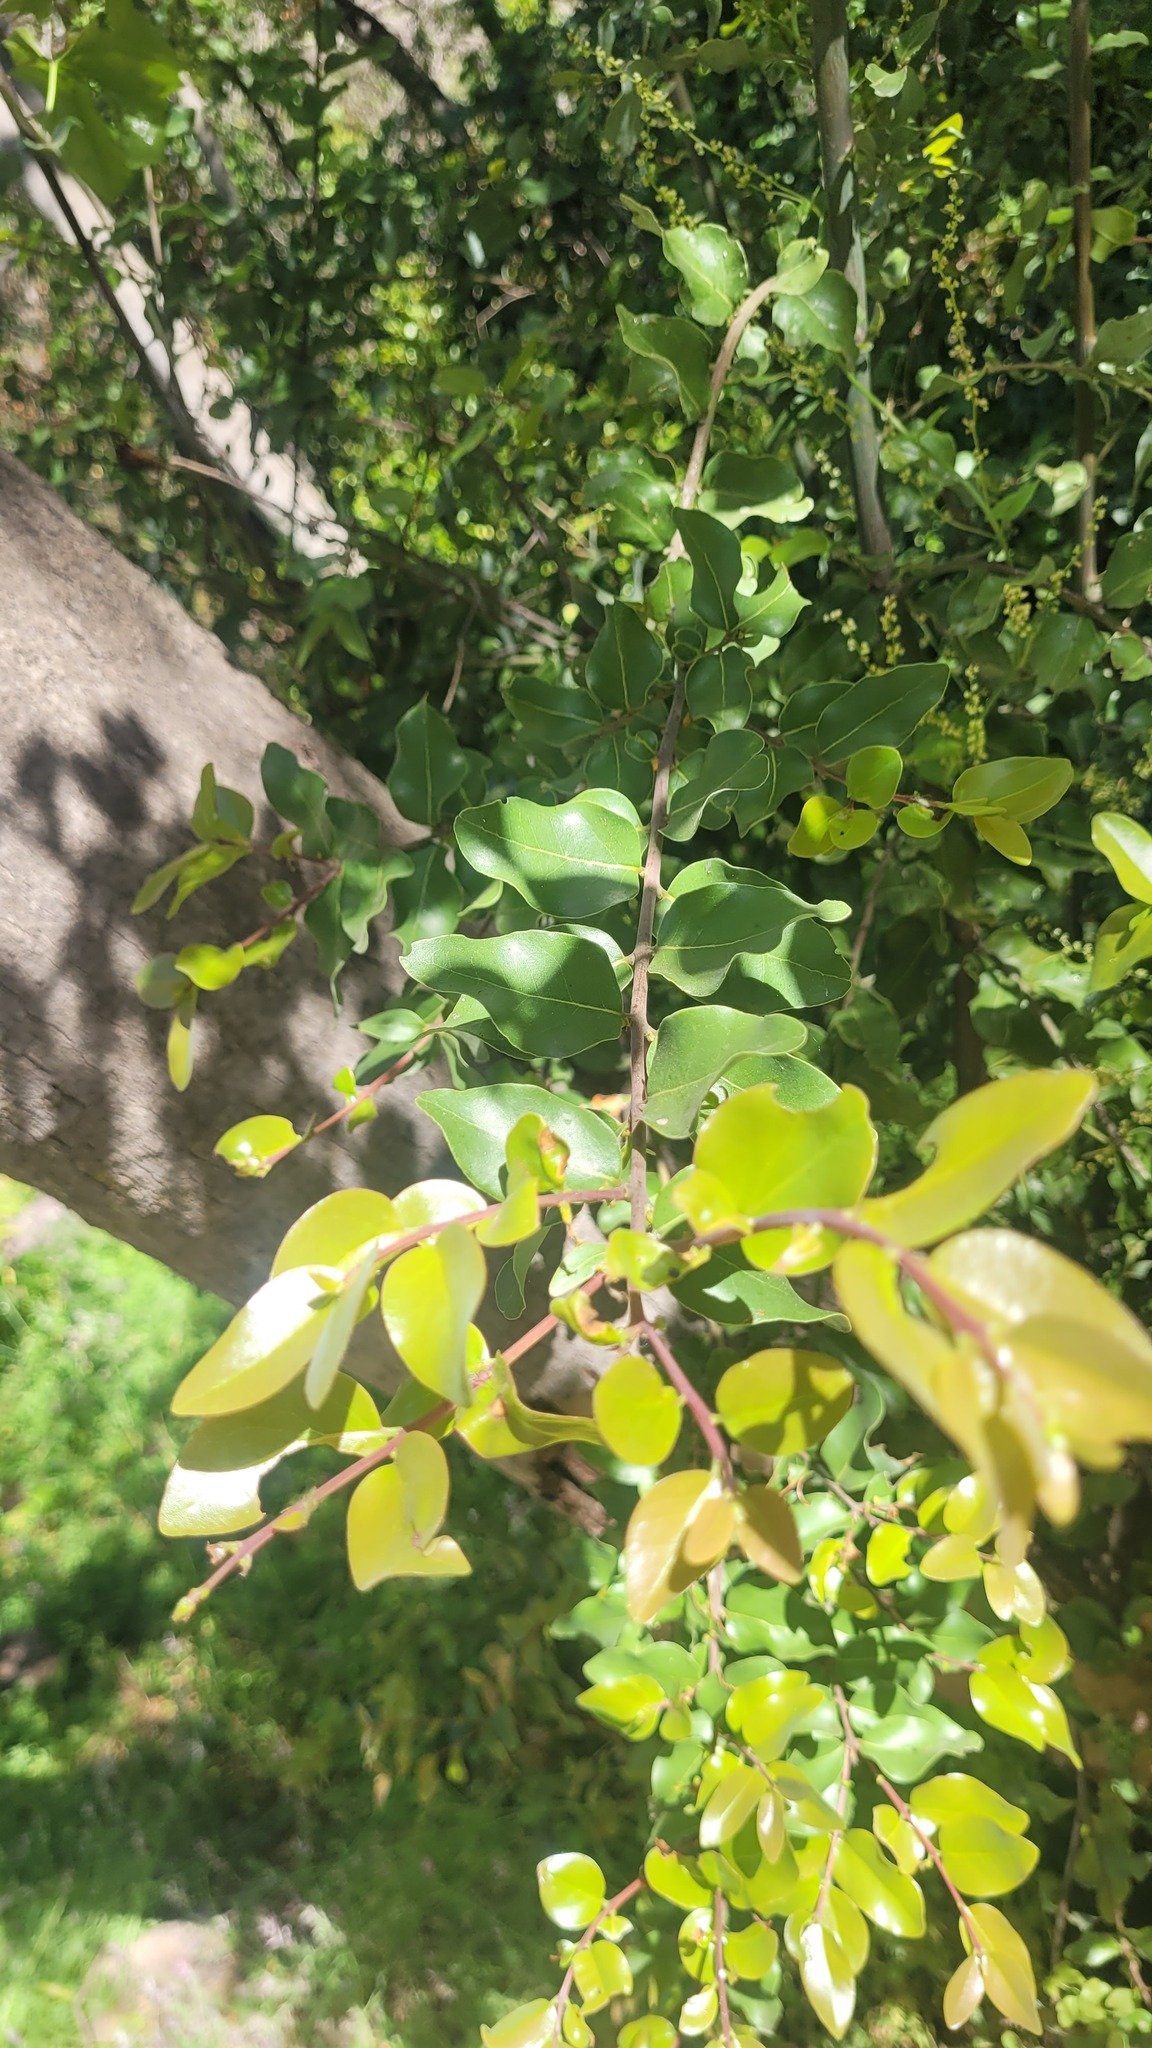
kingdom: Plantae
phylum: Tracheophyta
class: Magnoliopsida
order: Laurales
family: Lauraceae
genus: Cryptocarya
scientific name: Cryptocarya alba
